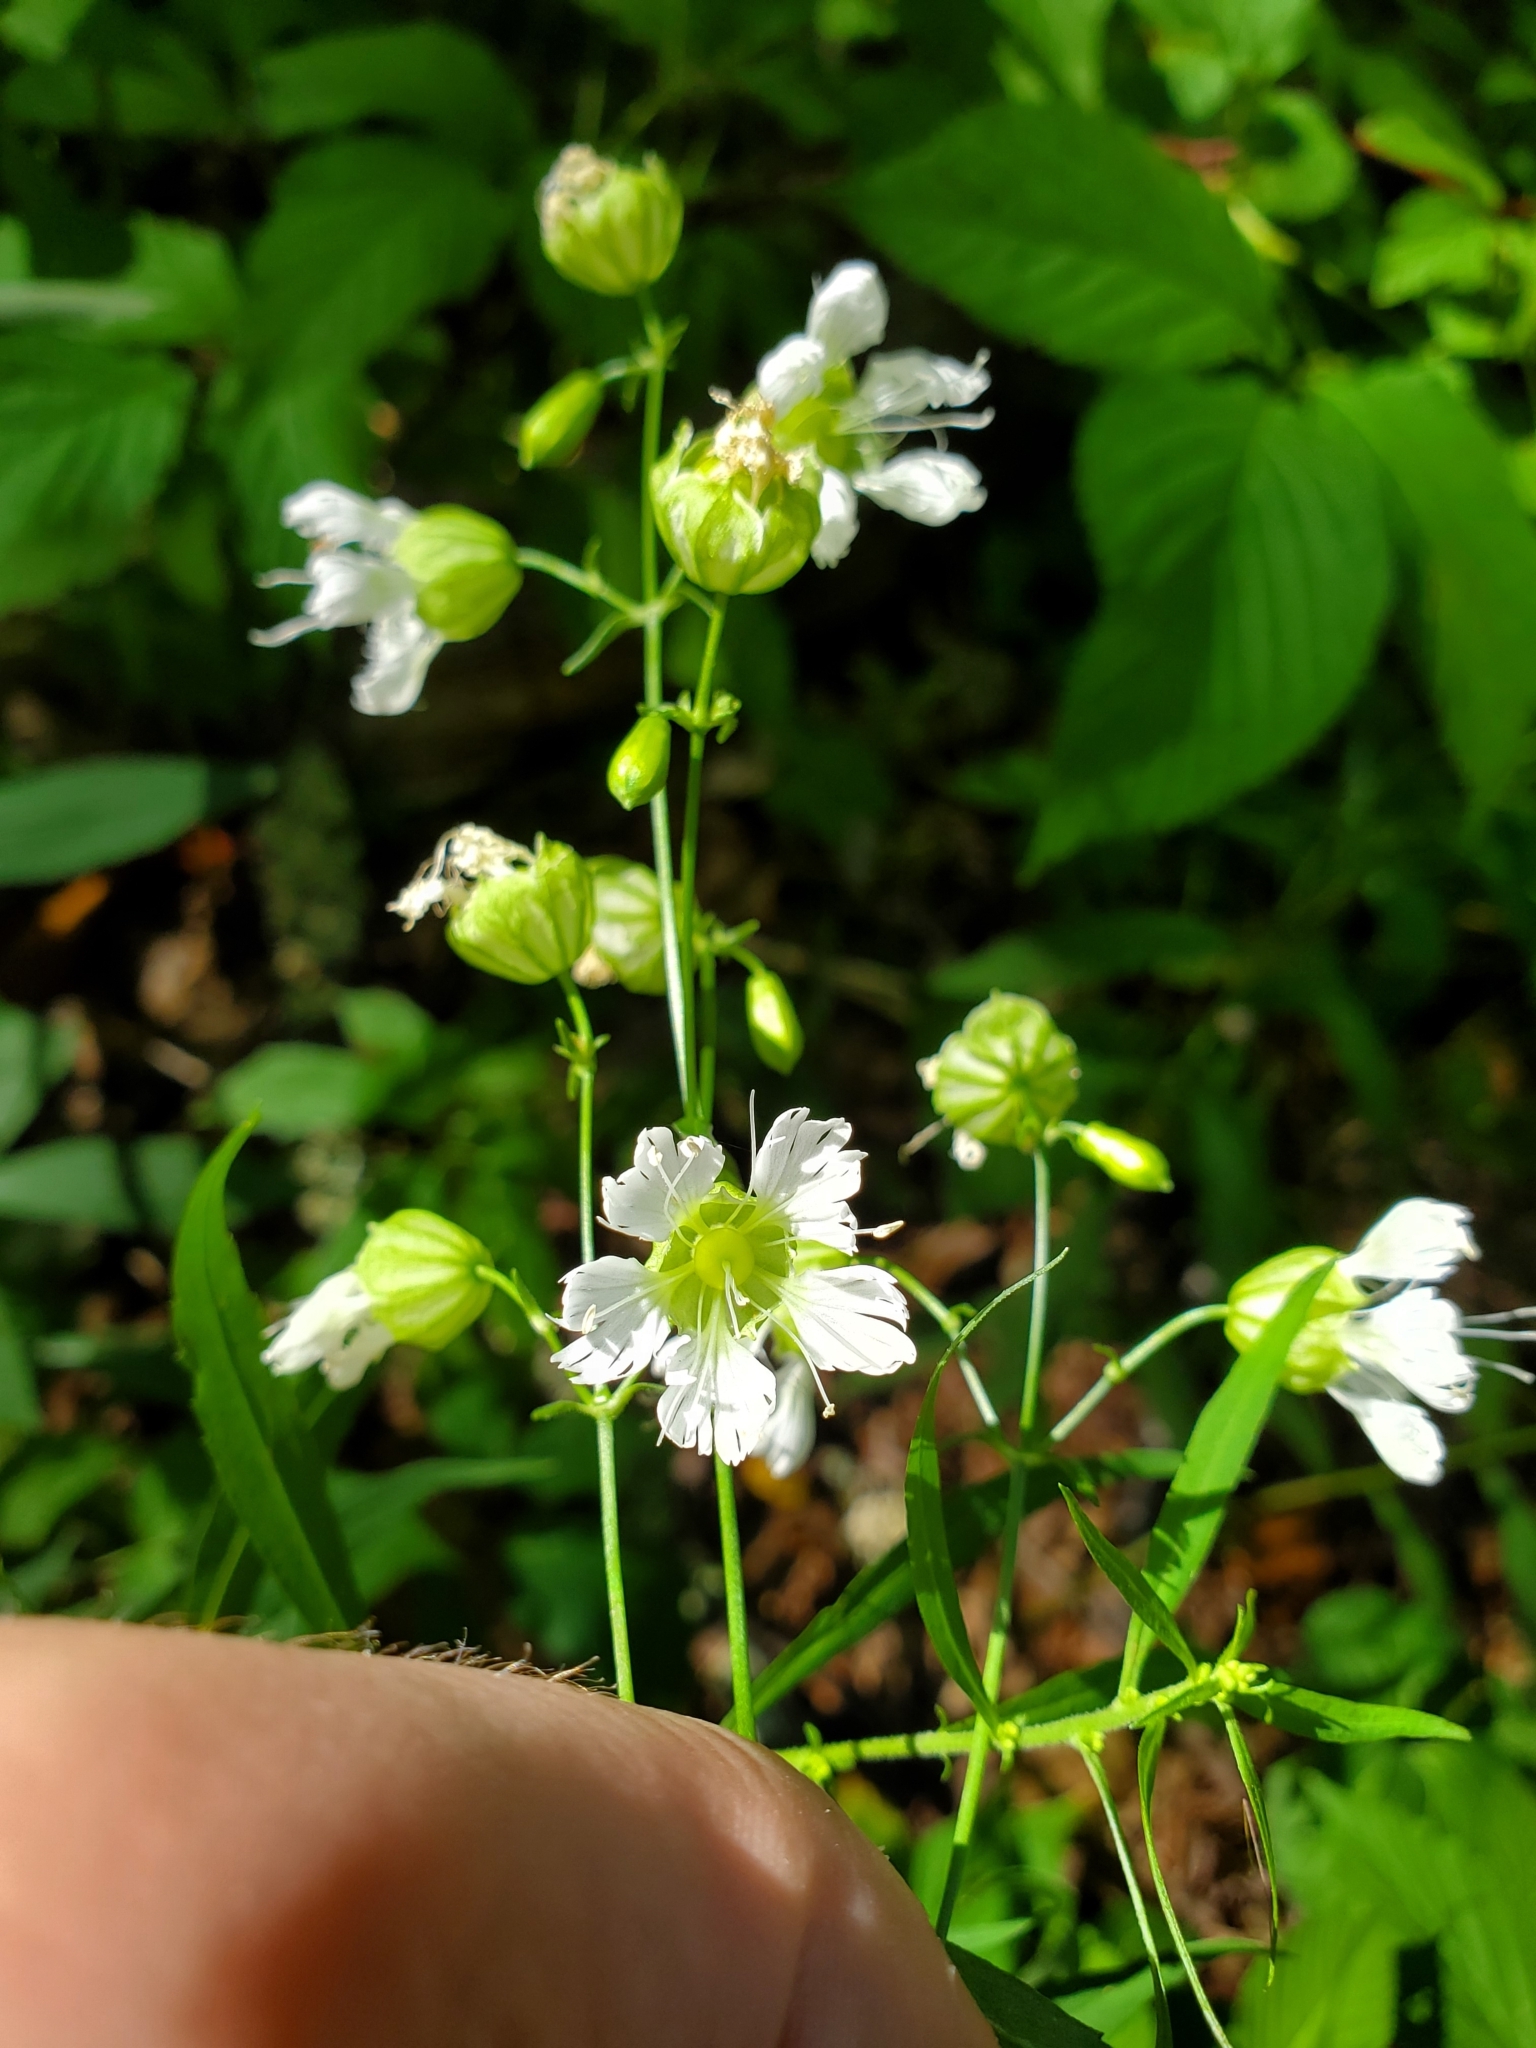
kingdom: Plantae
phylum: Tracheophyta
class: Magnoliopsida
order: Caryophyllales
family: Caryophyllaceae
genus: Silene
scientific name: Silene stellata
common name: Starry campion
